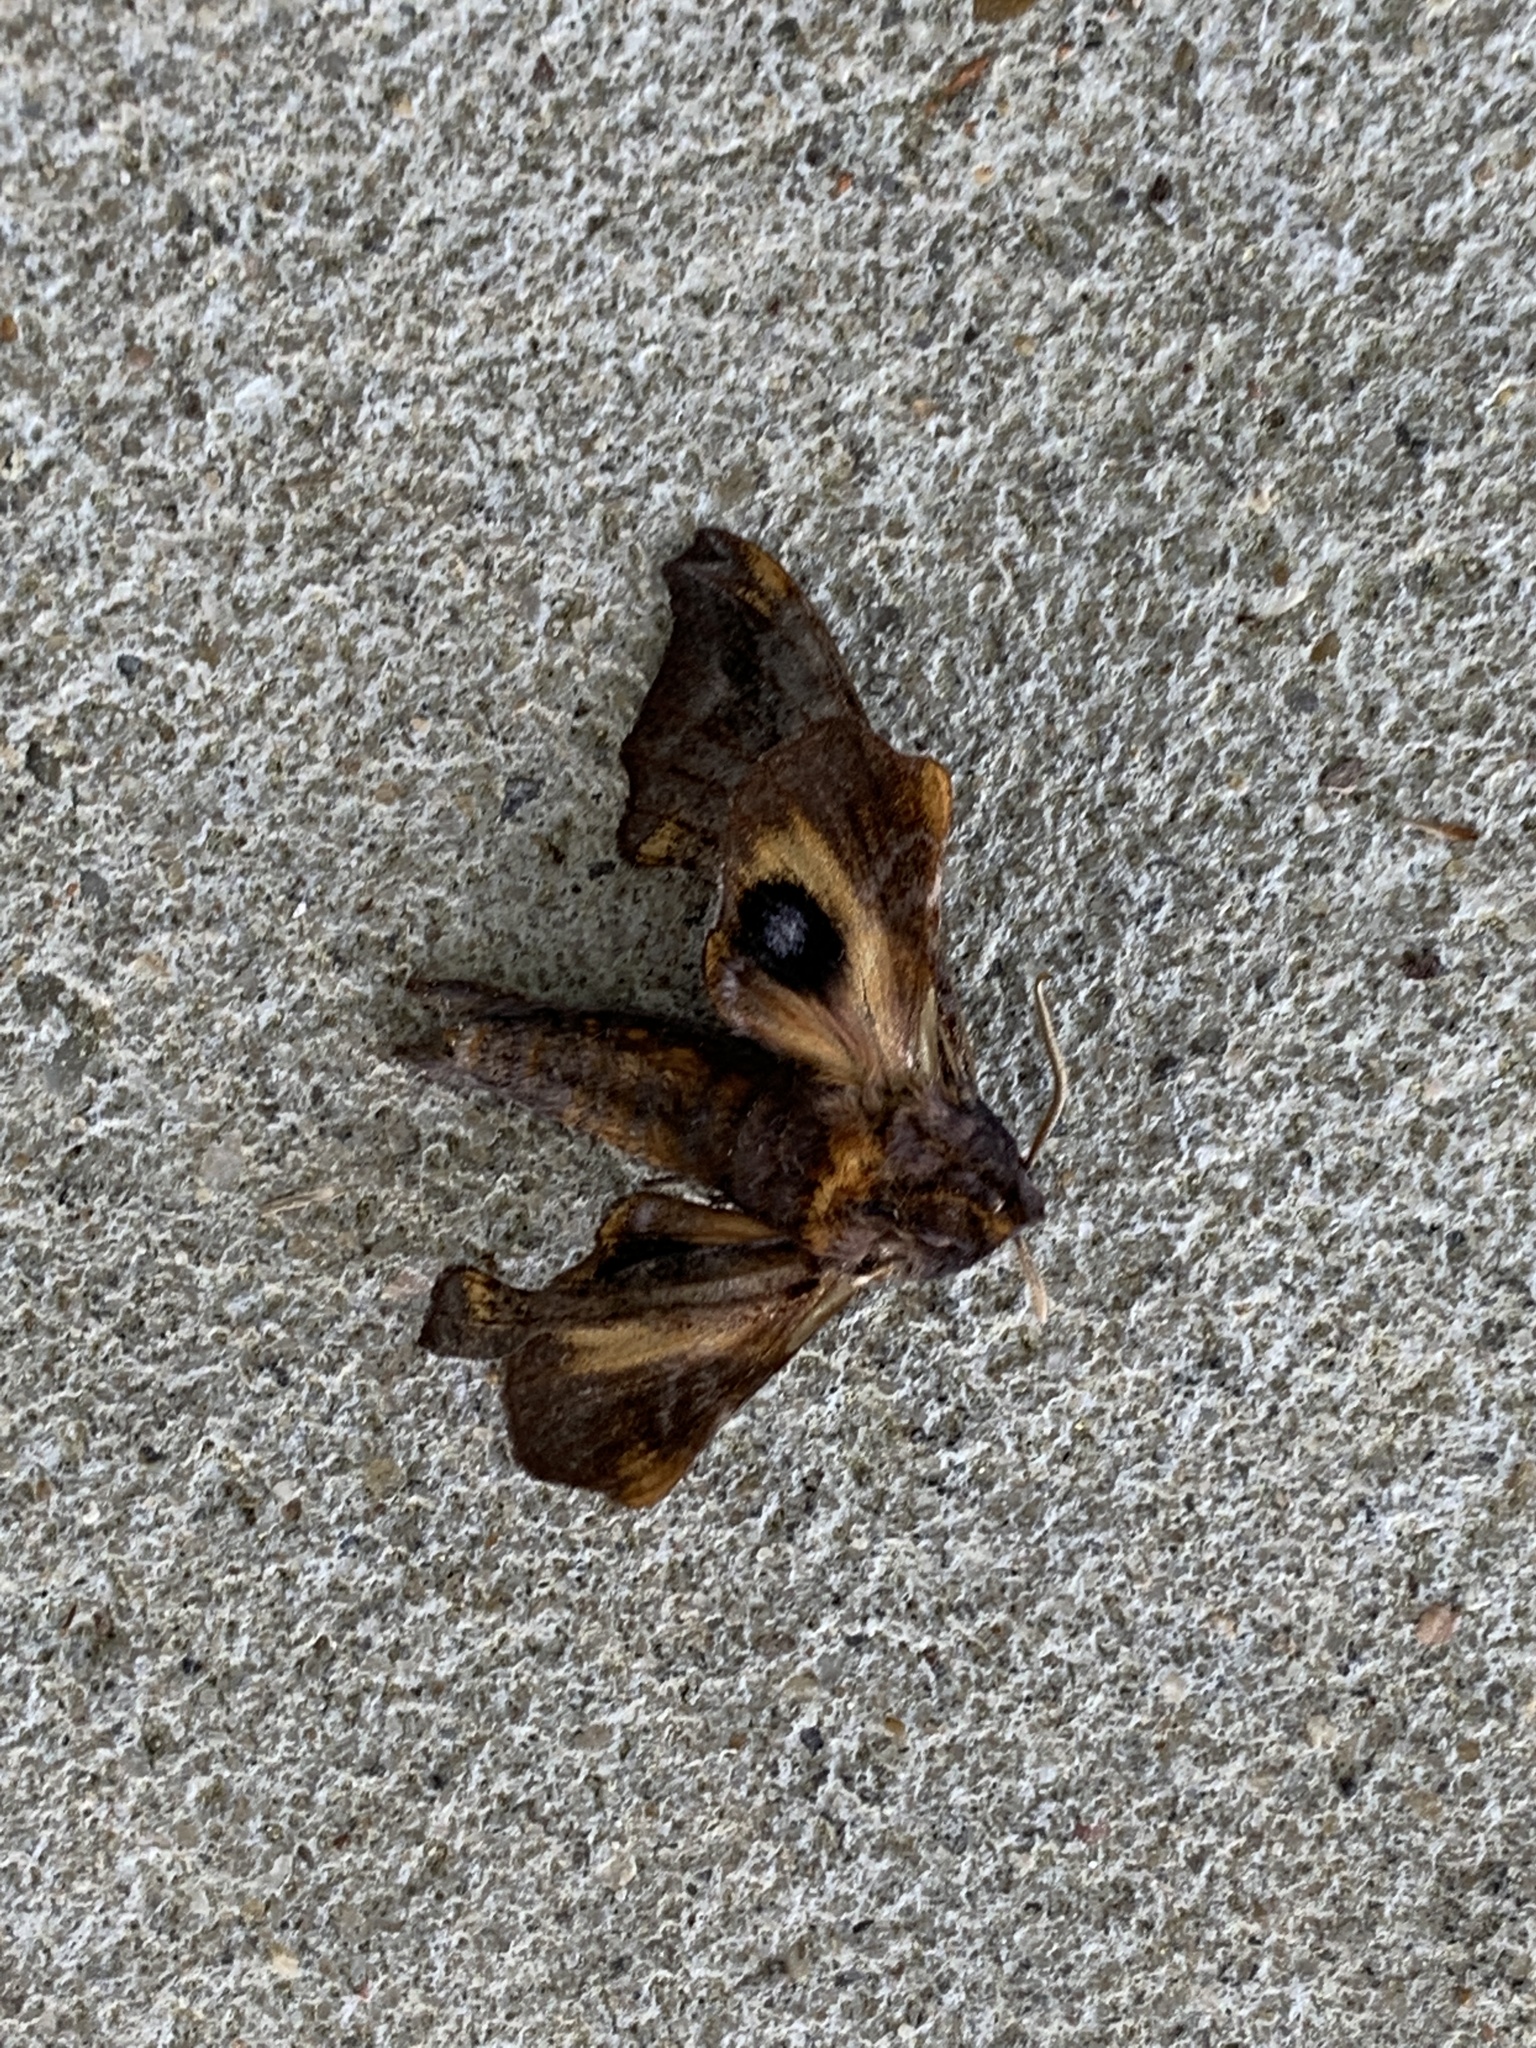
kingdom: Animalia
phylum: Arthropoda
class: Insecta
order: Lepidoptera
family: Sphingidae
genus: Paonias
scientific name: Paonias myops
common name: Small-eyed sphinx
